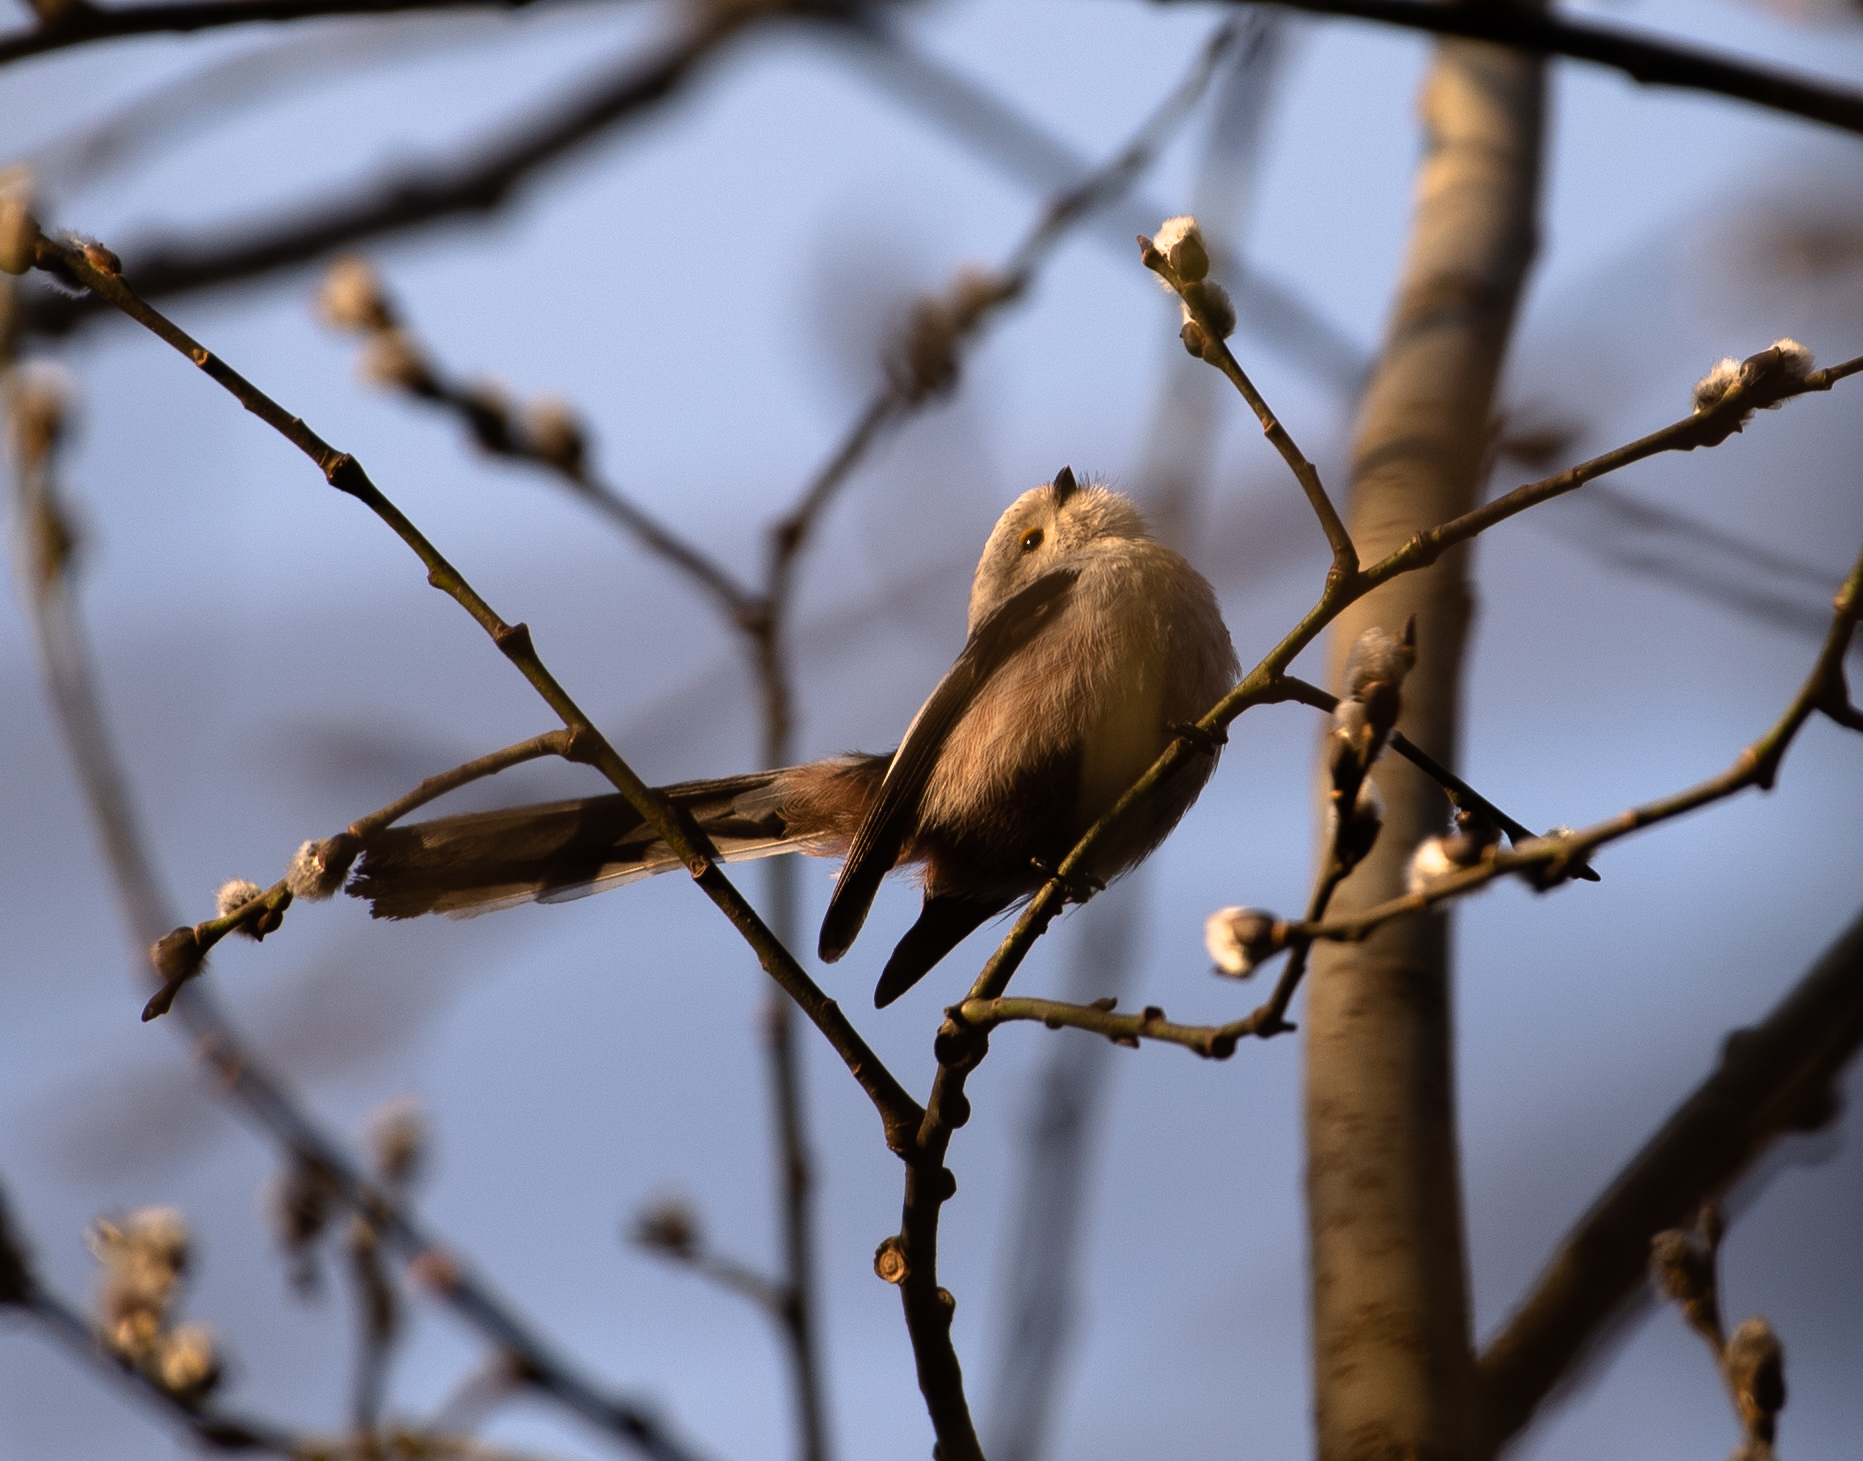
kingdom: Animalia
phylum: Chordata
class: Aves
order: Passeriformes
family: Aegithalidae
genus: Aegithalos
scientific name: Aegithalos caudatus
